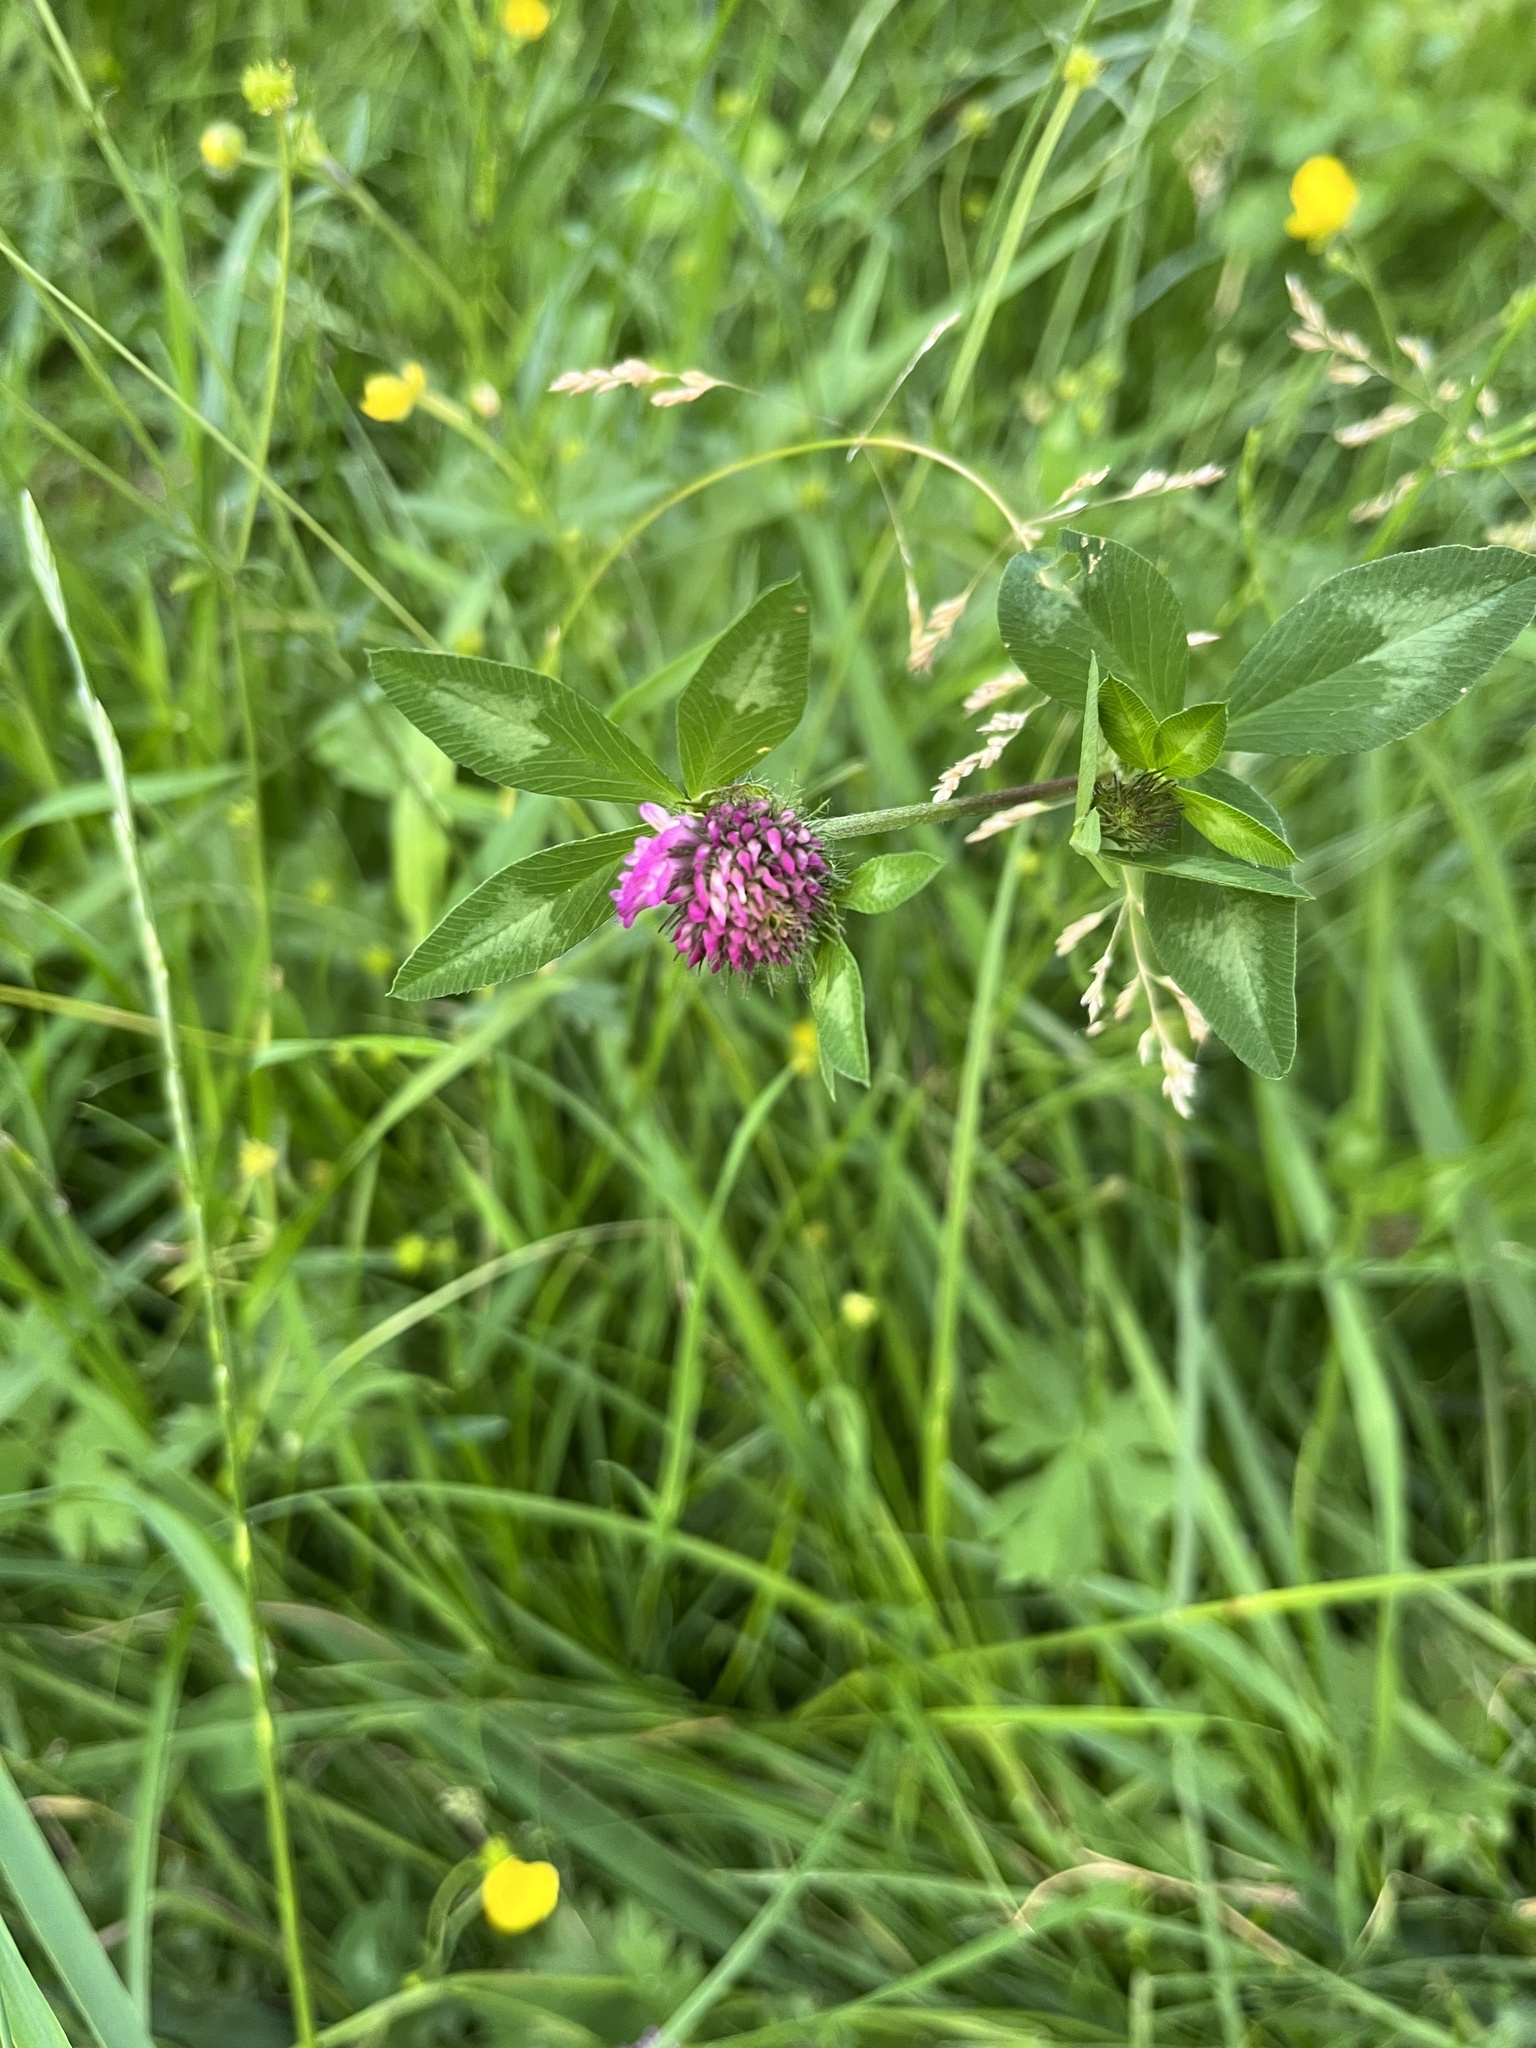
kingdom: Plantae
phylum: Tracheophyta
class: Magnoliopsida
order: Fabales
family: Fabaceae
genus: Trifolium
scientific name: Trifolium pratense
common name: Red clover
